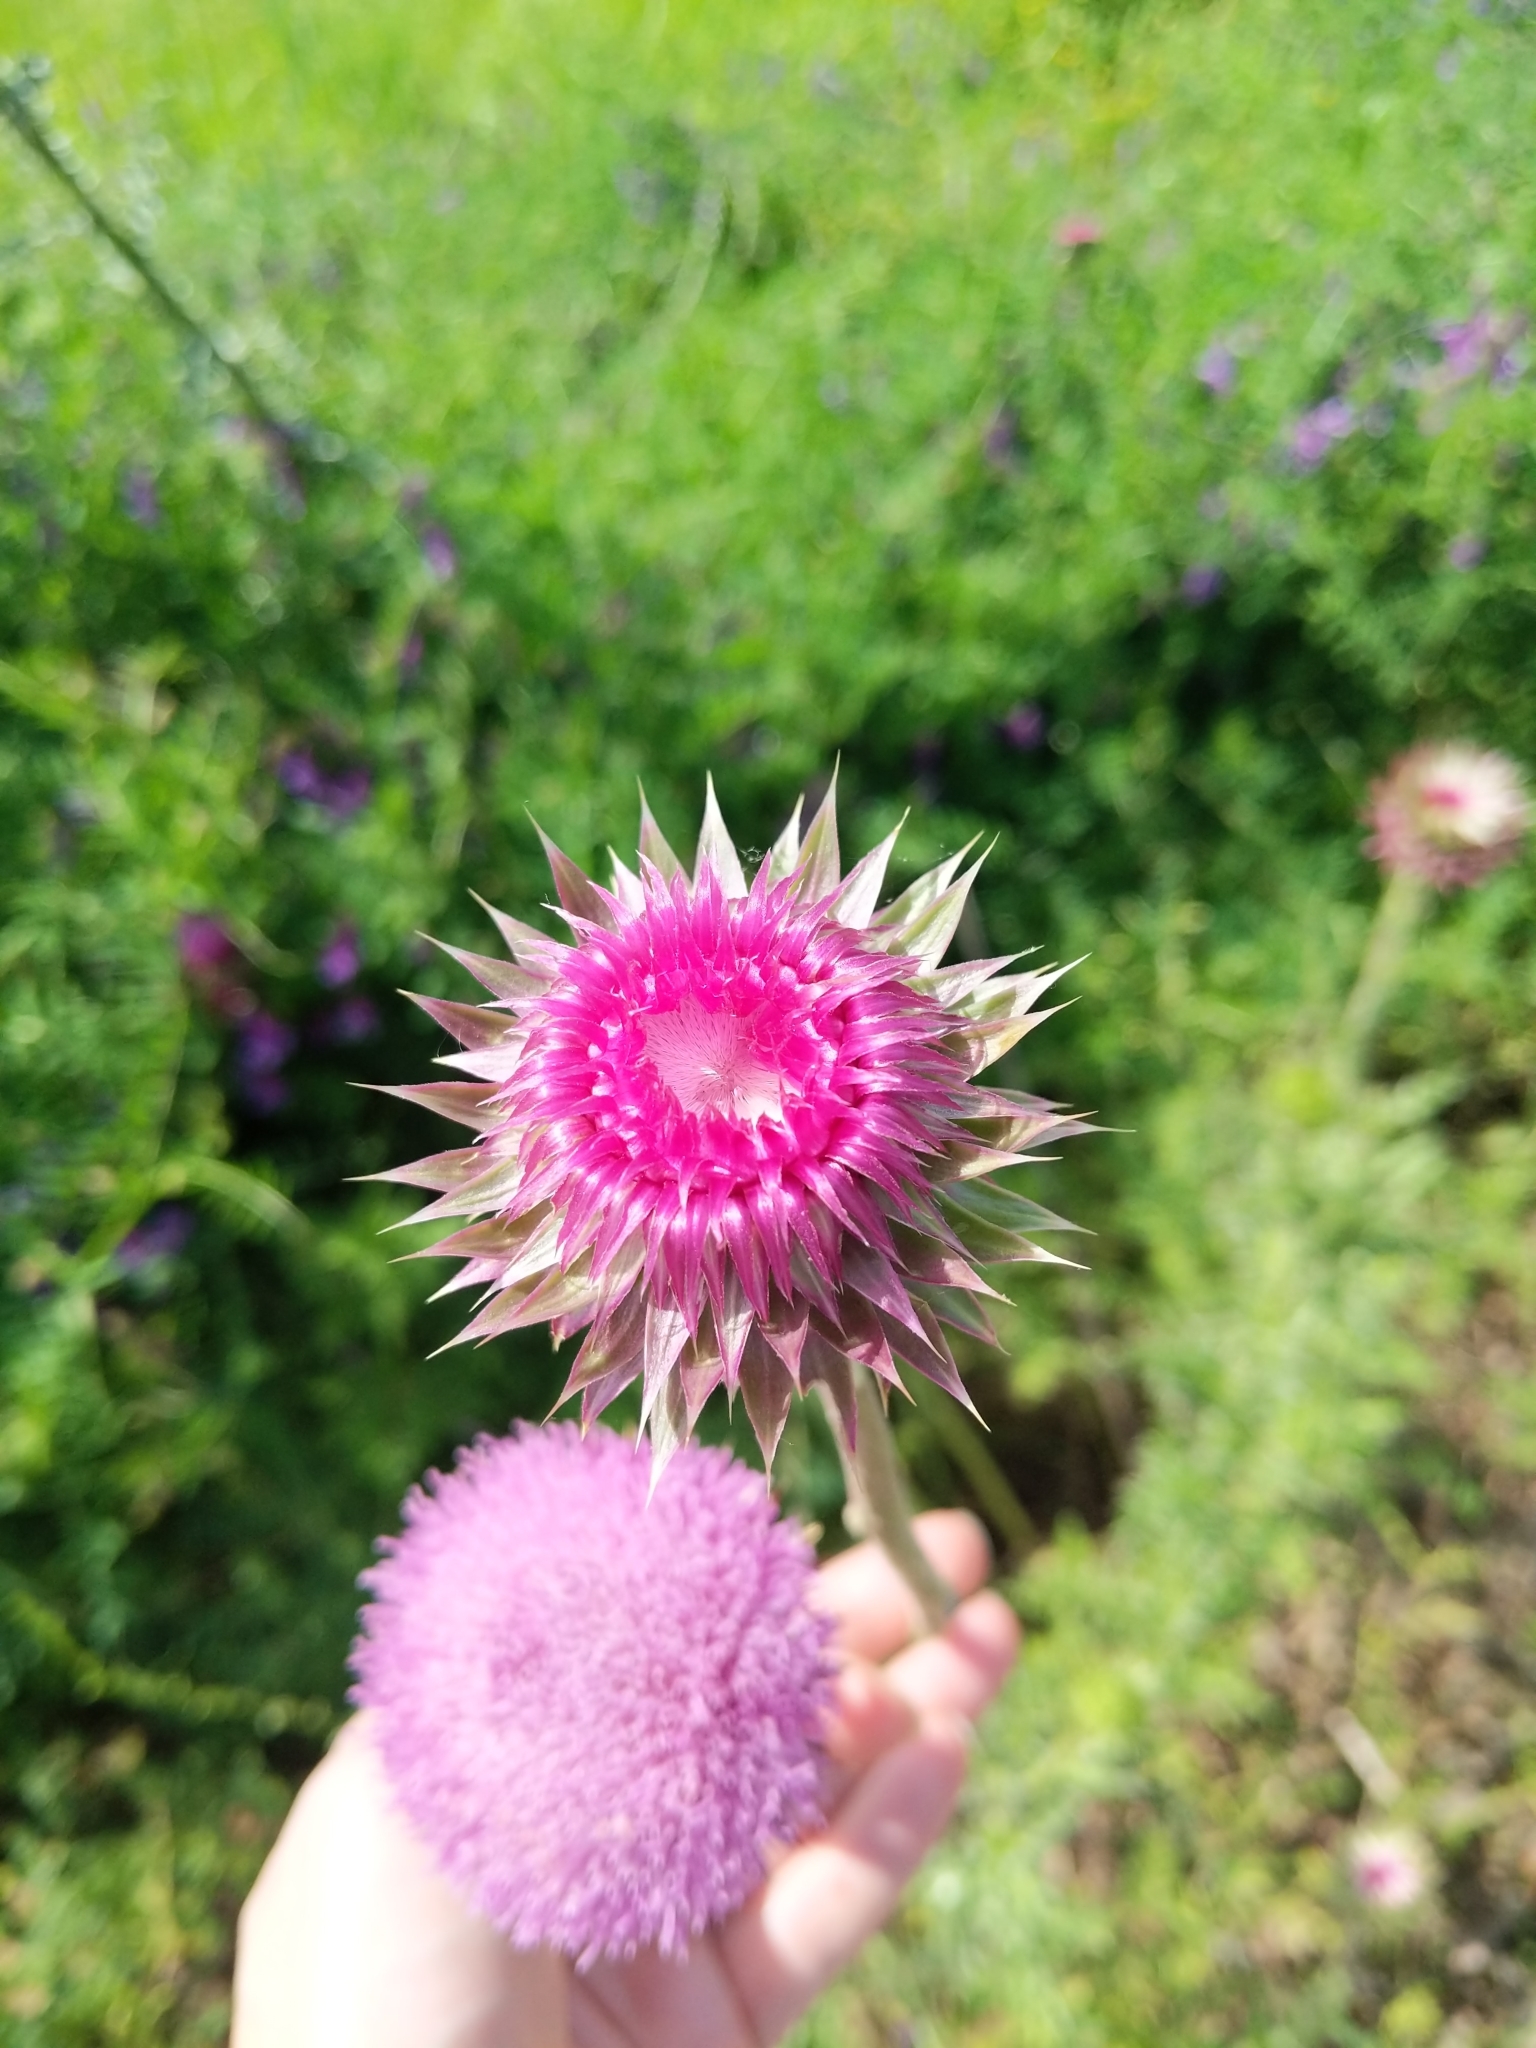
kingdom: Plantae
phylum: Tracheophyta
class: Magnoliopsida
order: Asterales
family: Asteraceae
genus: Carduus
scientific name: Carduus nutans
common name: Musk thistle
